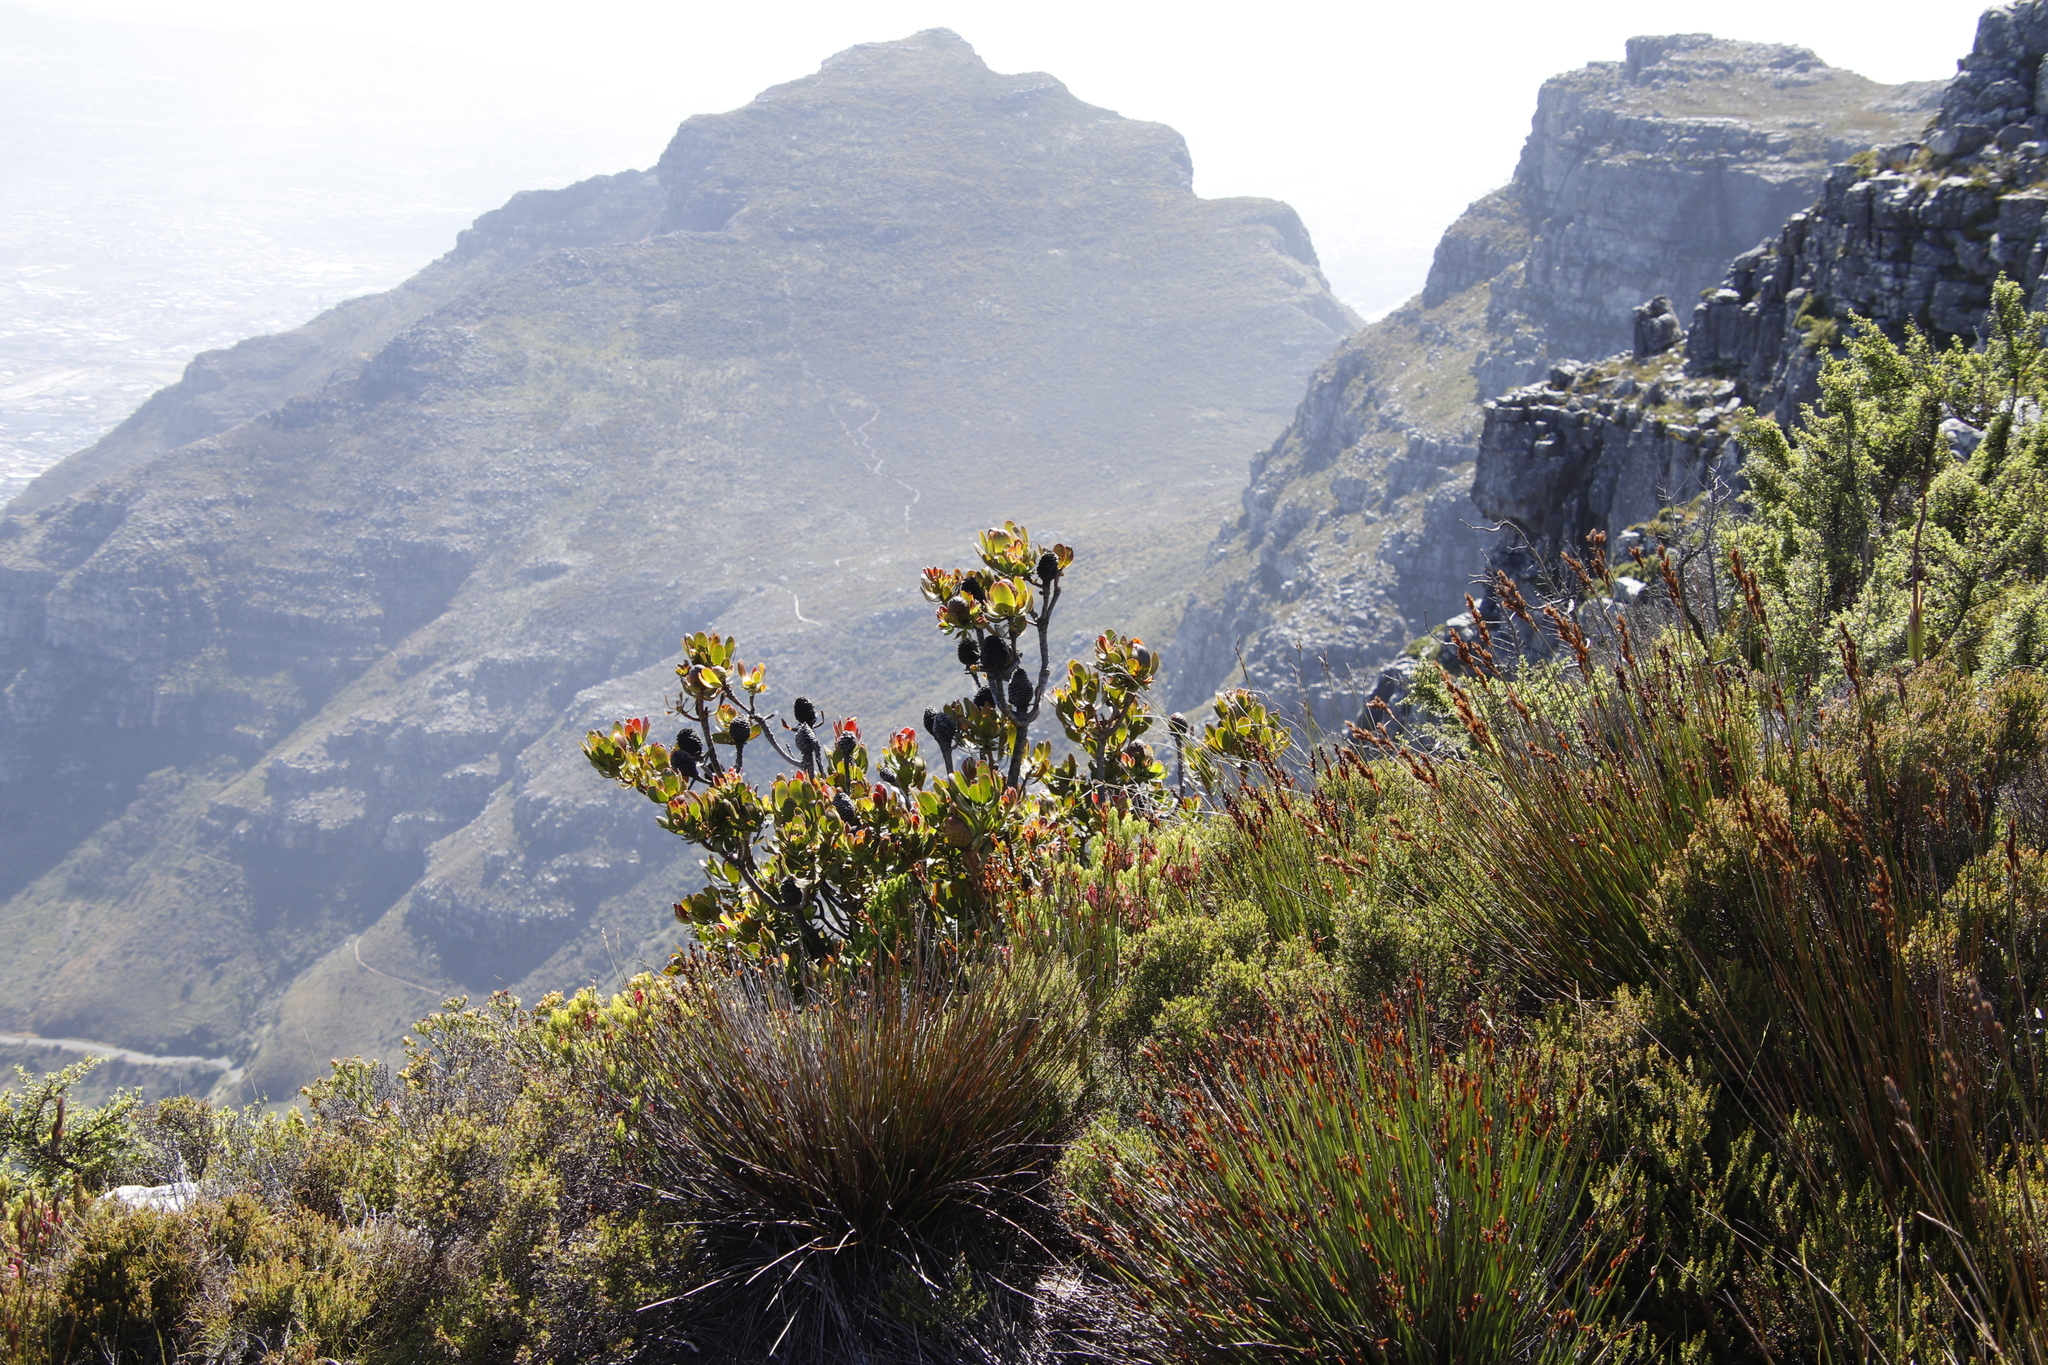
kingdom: Plantae
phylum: Tracheophyta
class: Magnoliopsida
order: Proteales
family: Proteaceae
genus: Leucadendron
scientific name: Leucadendron strobilinum
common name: Mountain rose
